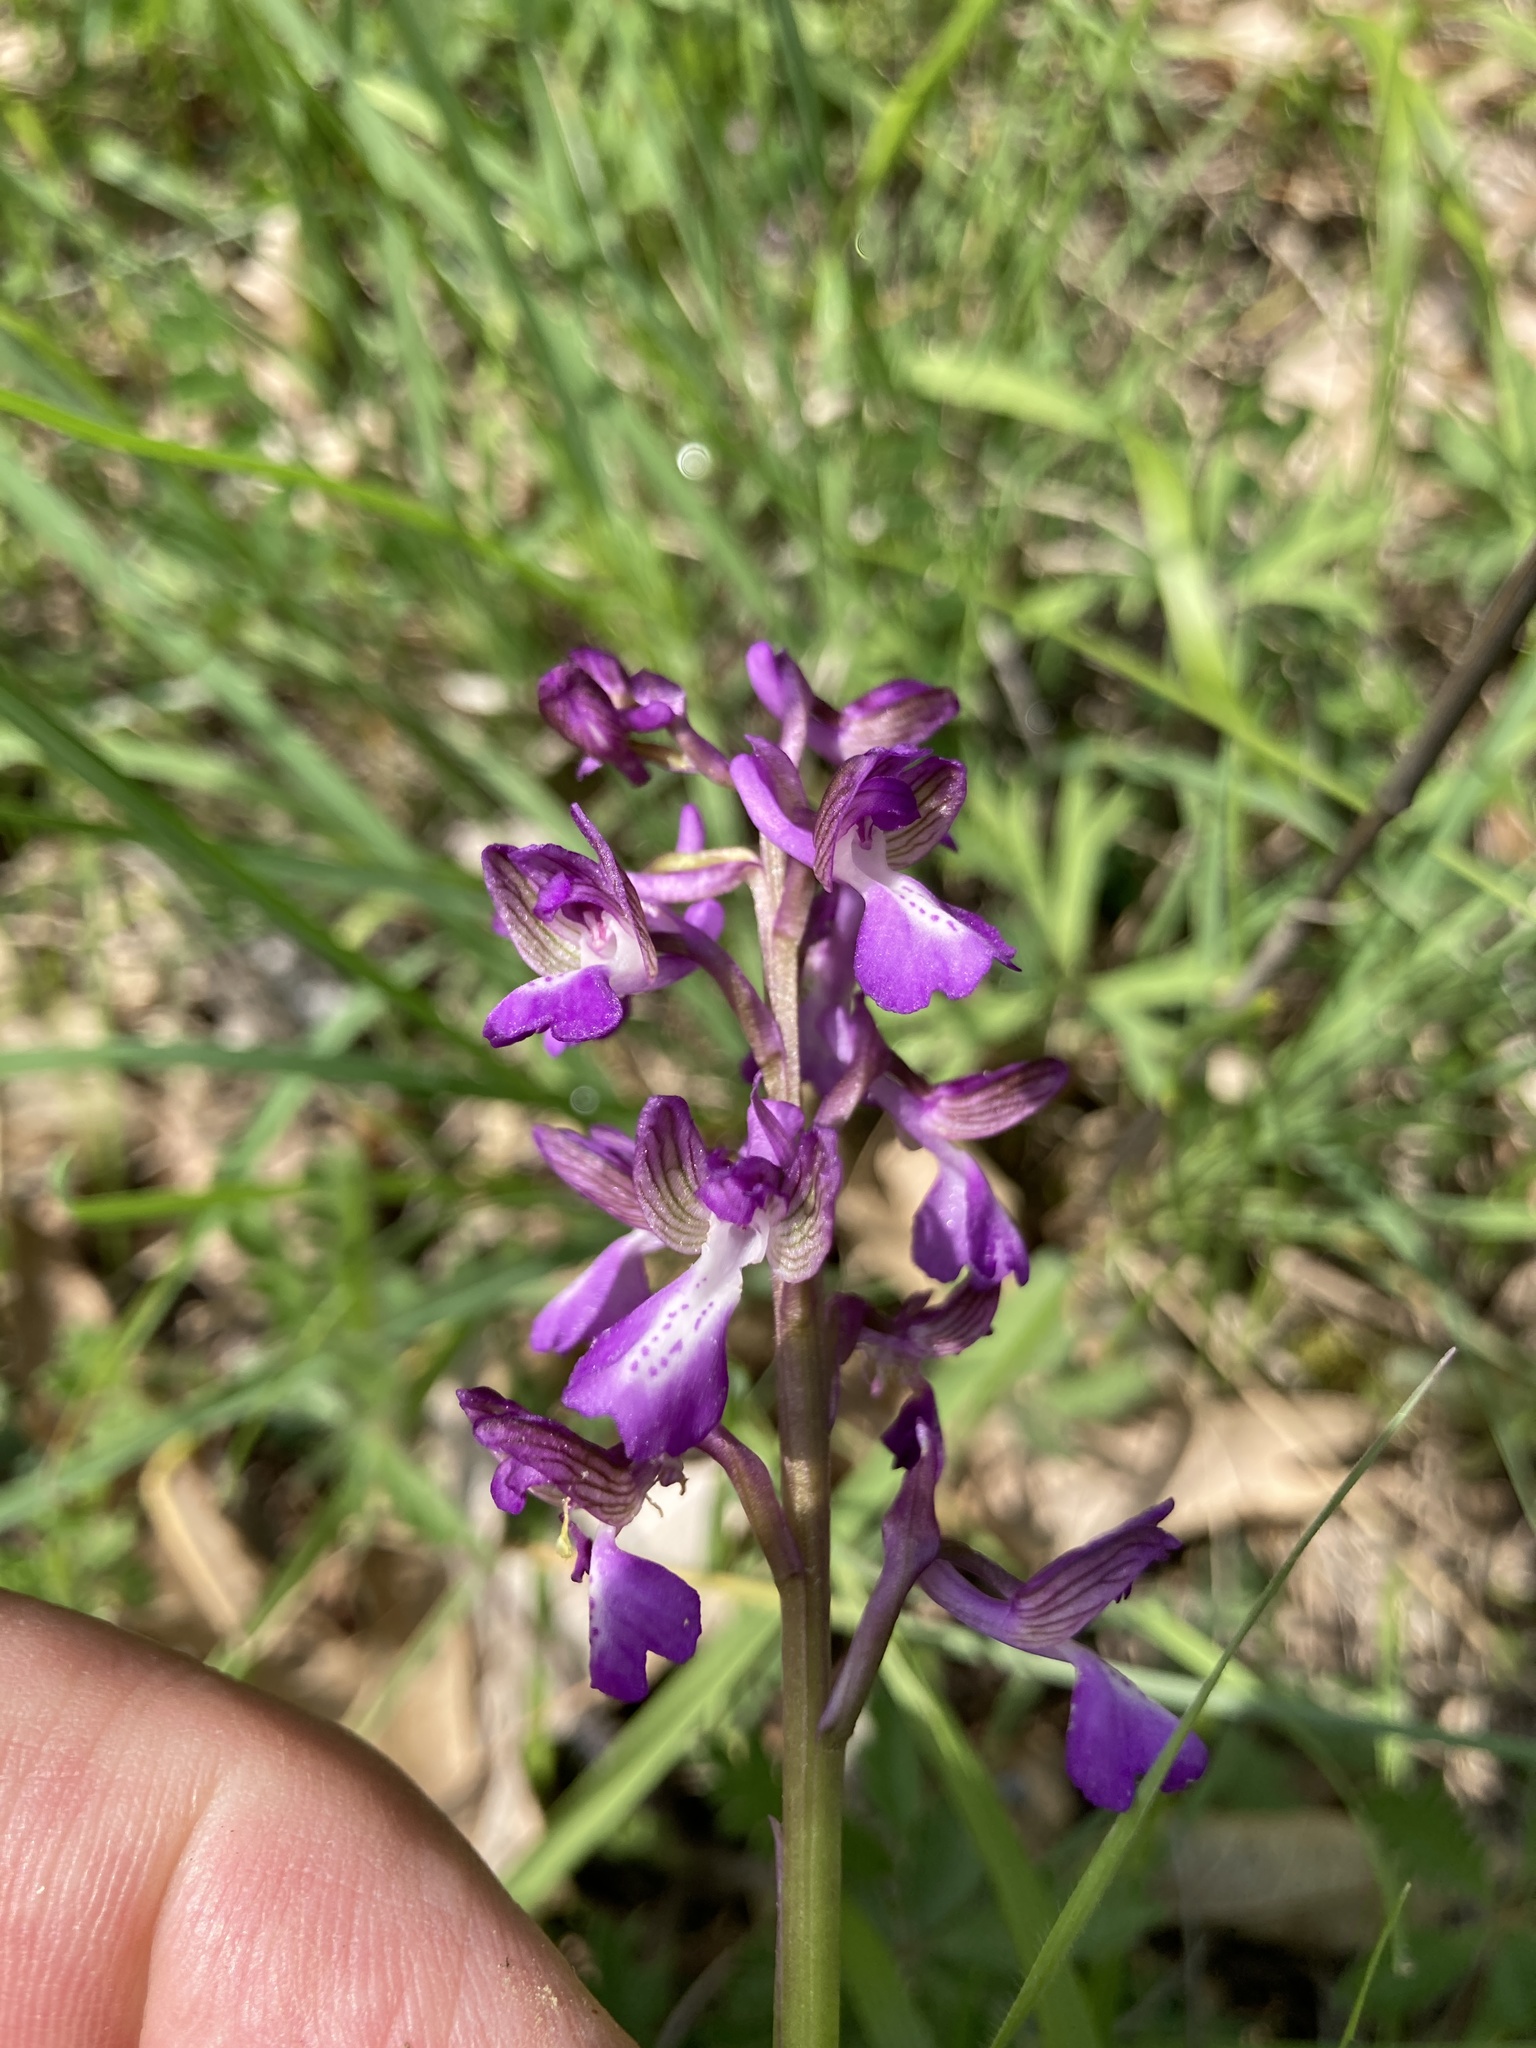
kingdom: Plantae
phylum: Tracheophyta
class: Liliopsida
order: Asparagales
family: Orchidaceae
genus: Anacamptis
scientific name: Anacamptis morio
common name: Green-winged orchid
